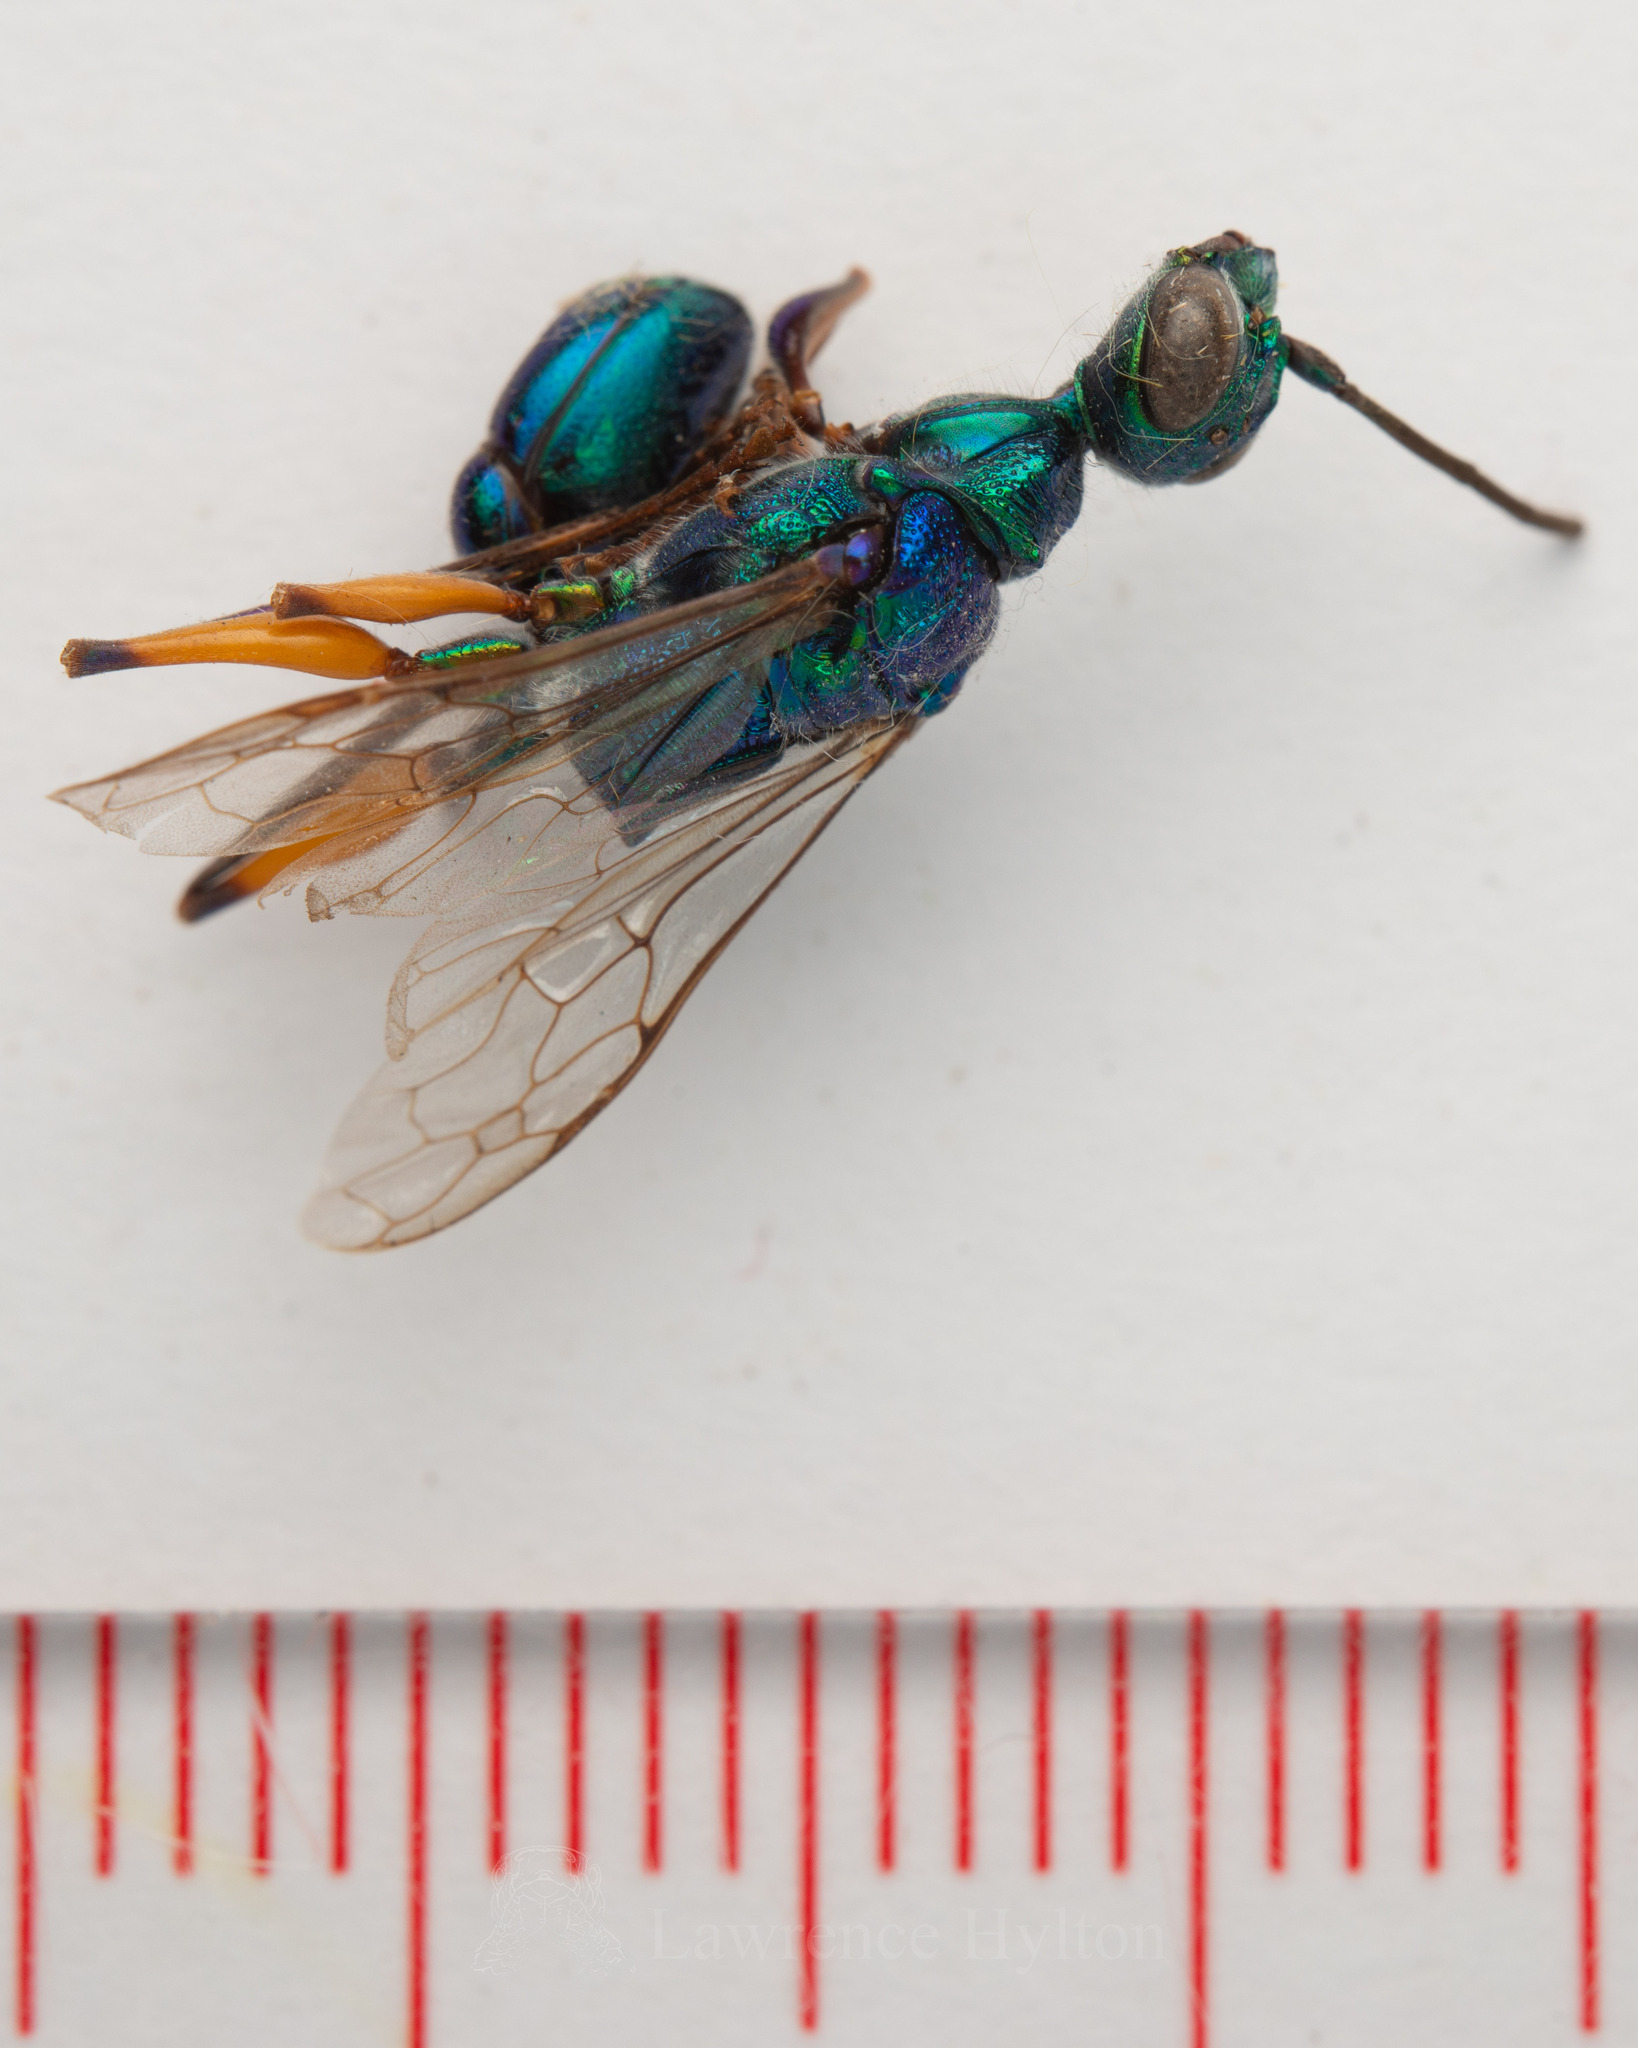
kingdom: Animalia
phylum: Arthropoda
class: Insecta
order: Hymenoptera
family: Ampulicidae
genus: Ampulex
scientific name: Ampulex compressa
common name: Emerald cockroach wasp
